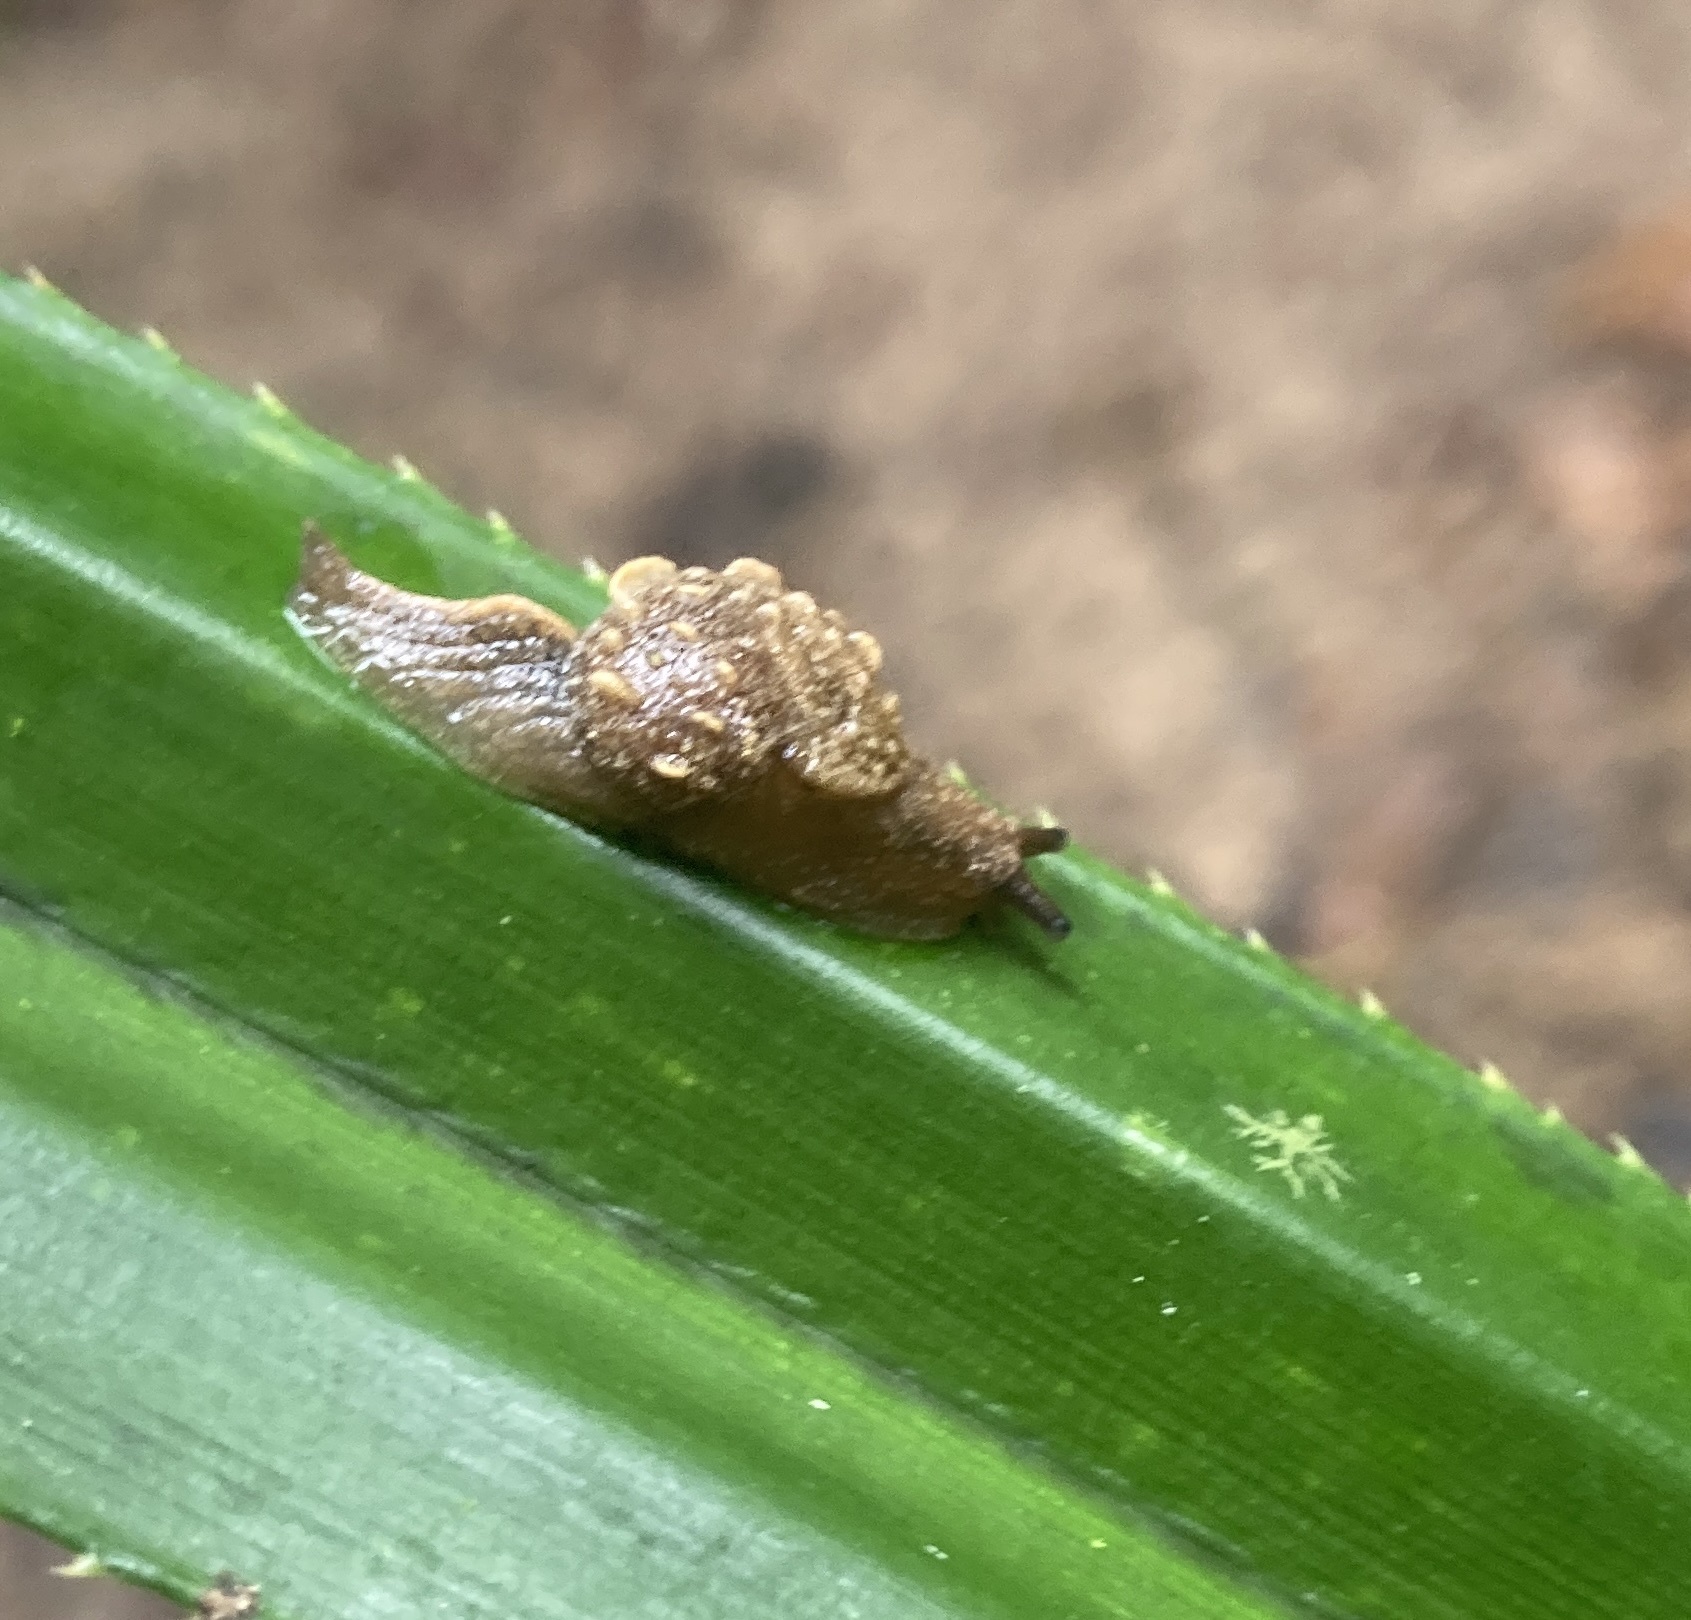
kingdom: Animalia
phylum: Mollusca
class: Gastropoda
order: Stylommatophora
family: Helicarionidae
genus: Fastosarion
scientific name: Fastosarion brazieri
